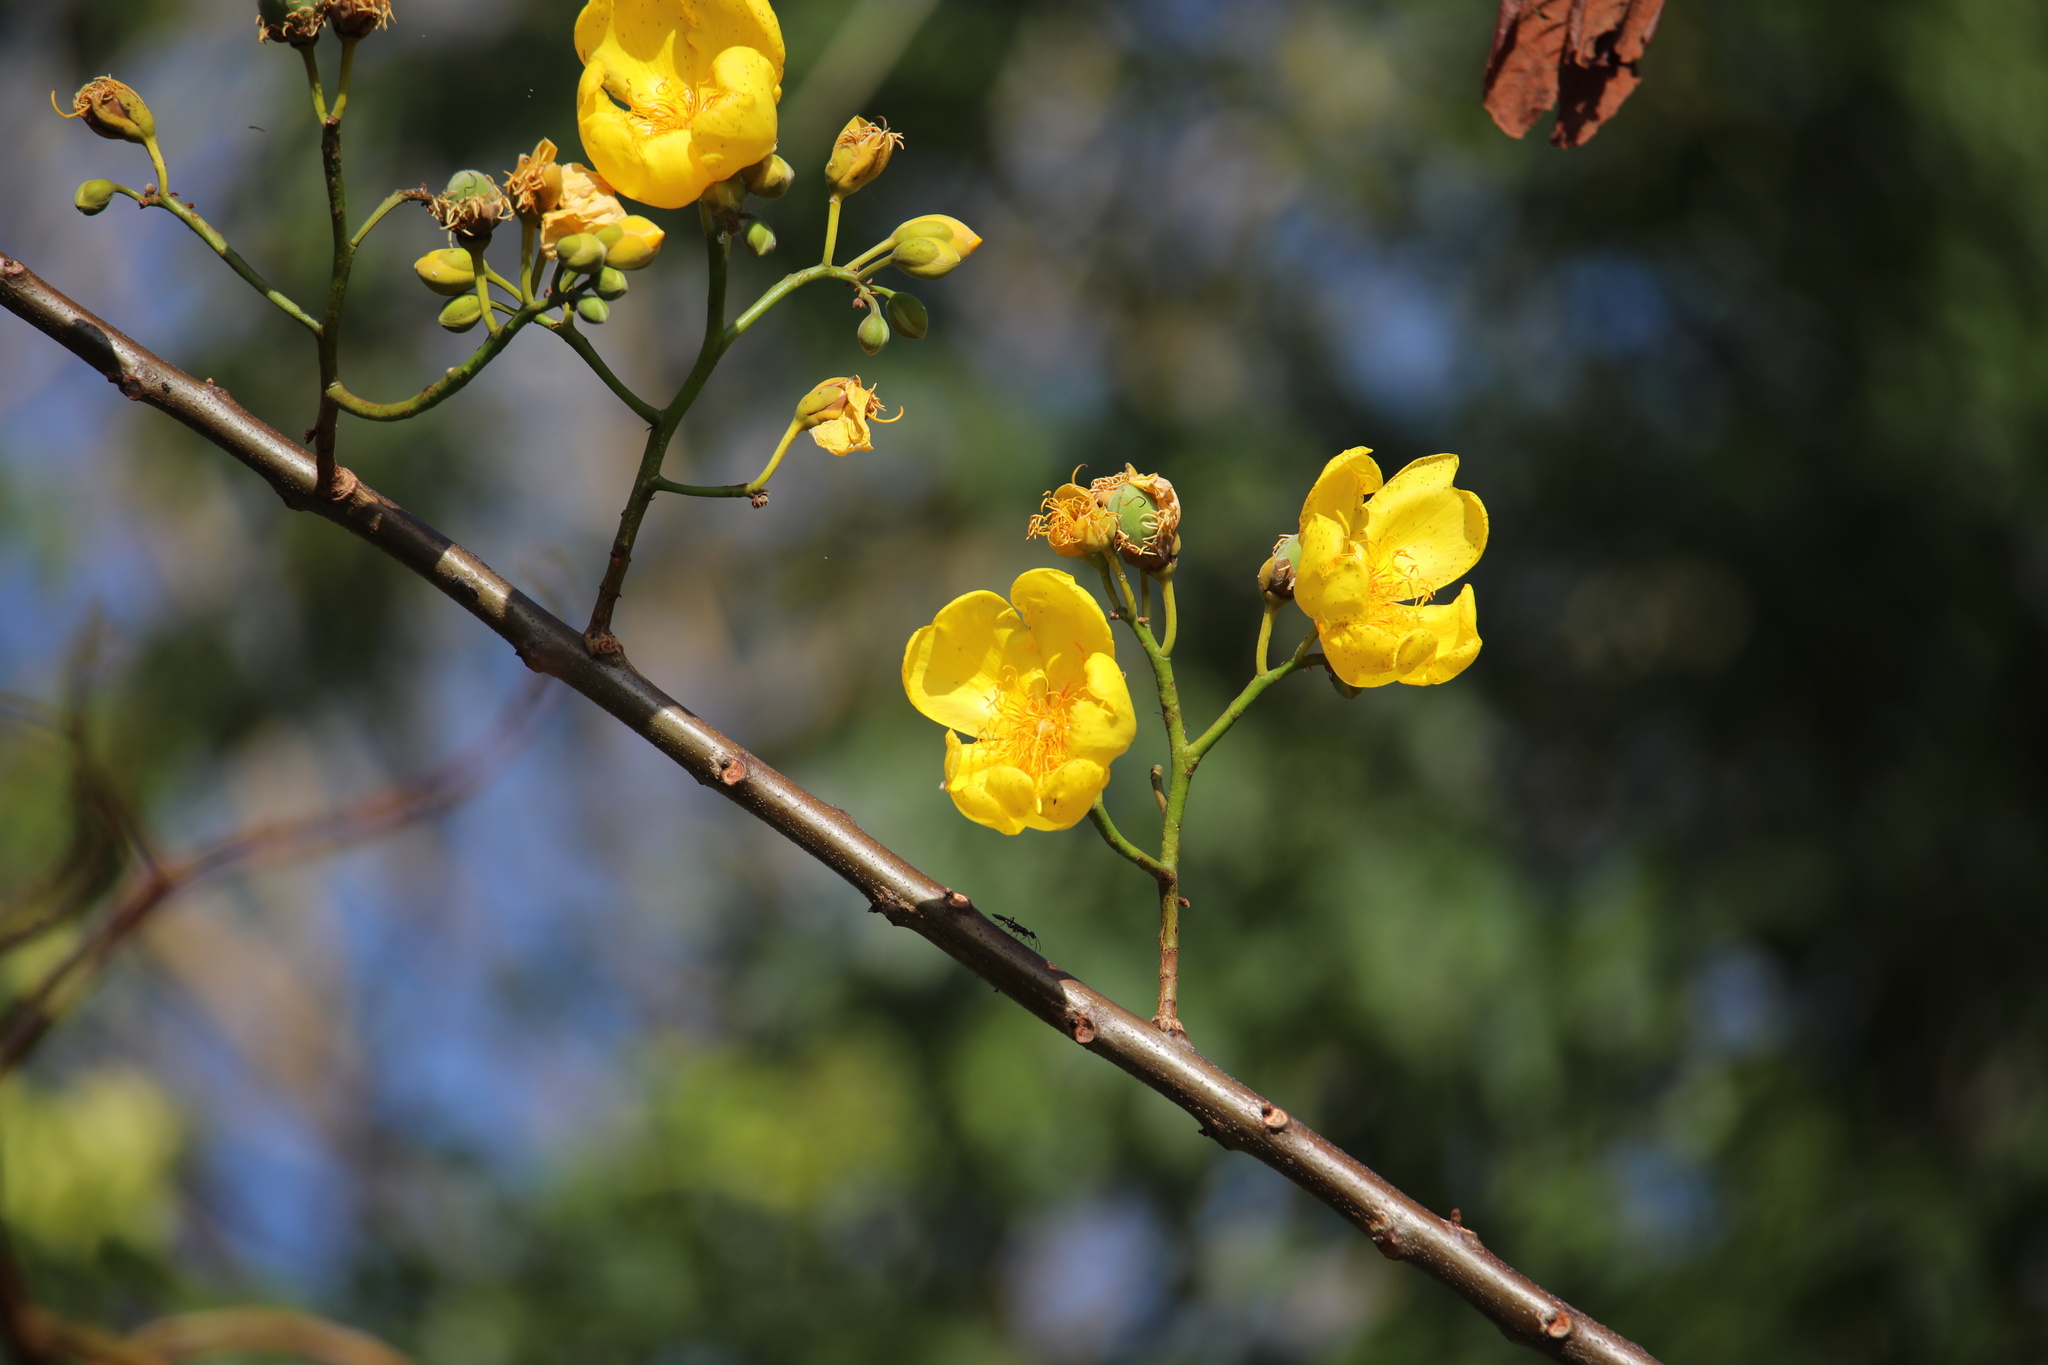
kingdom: Plantae
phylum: Tracheophyta
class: Magnoliopsida
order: Malvales
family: Cochlospermaceae
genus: Cochlospermum
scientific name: Cochlospermum vitifolium
